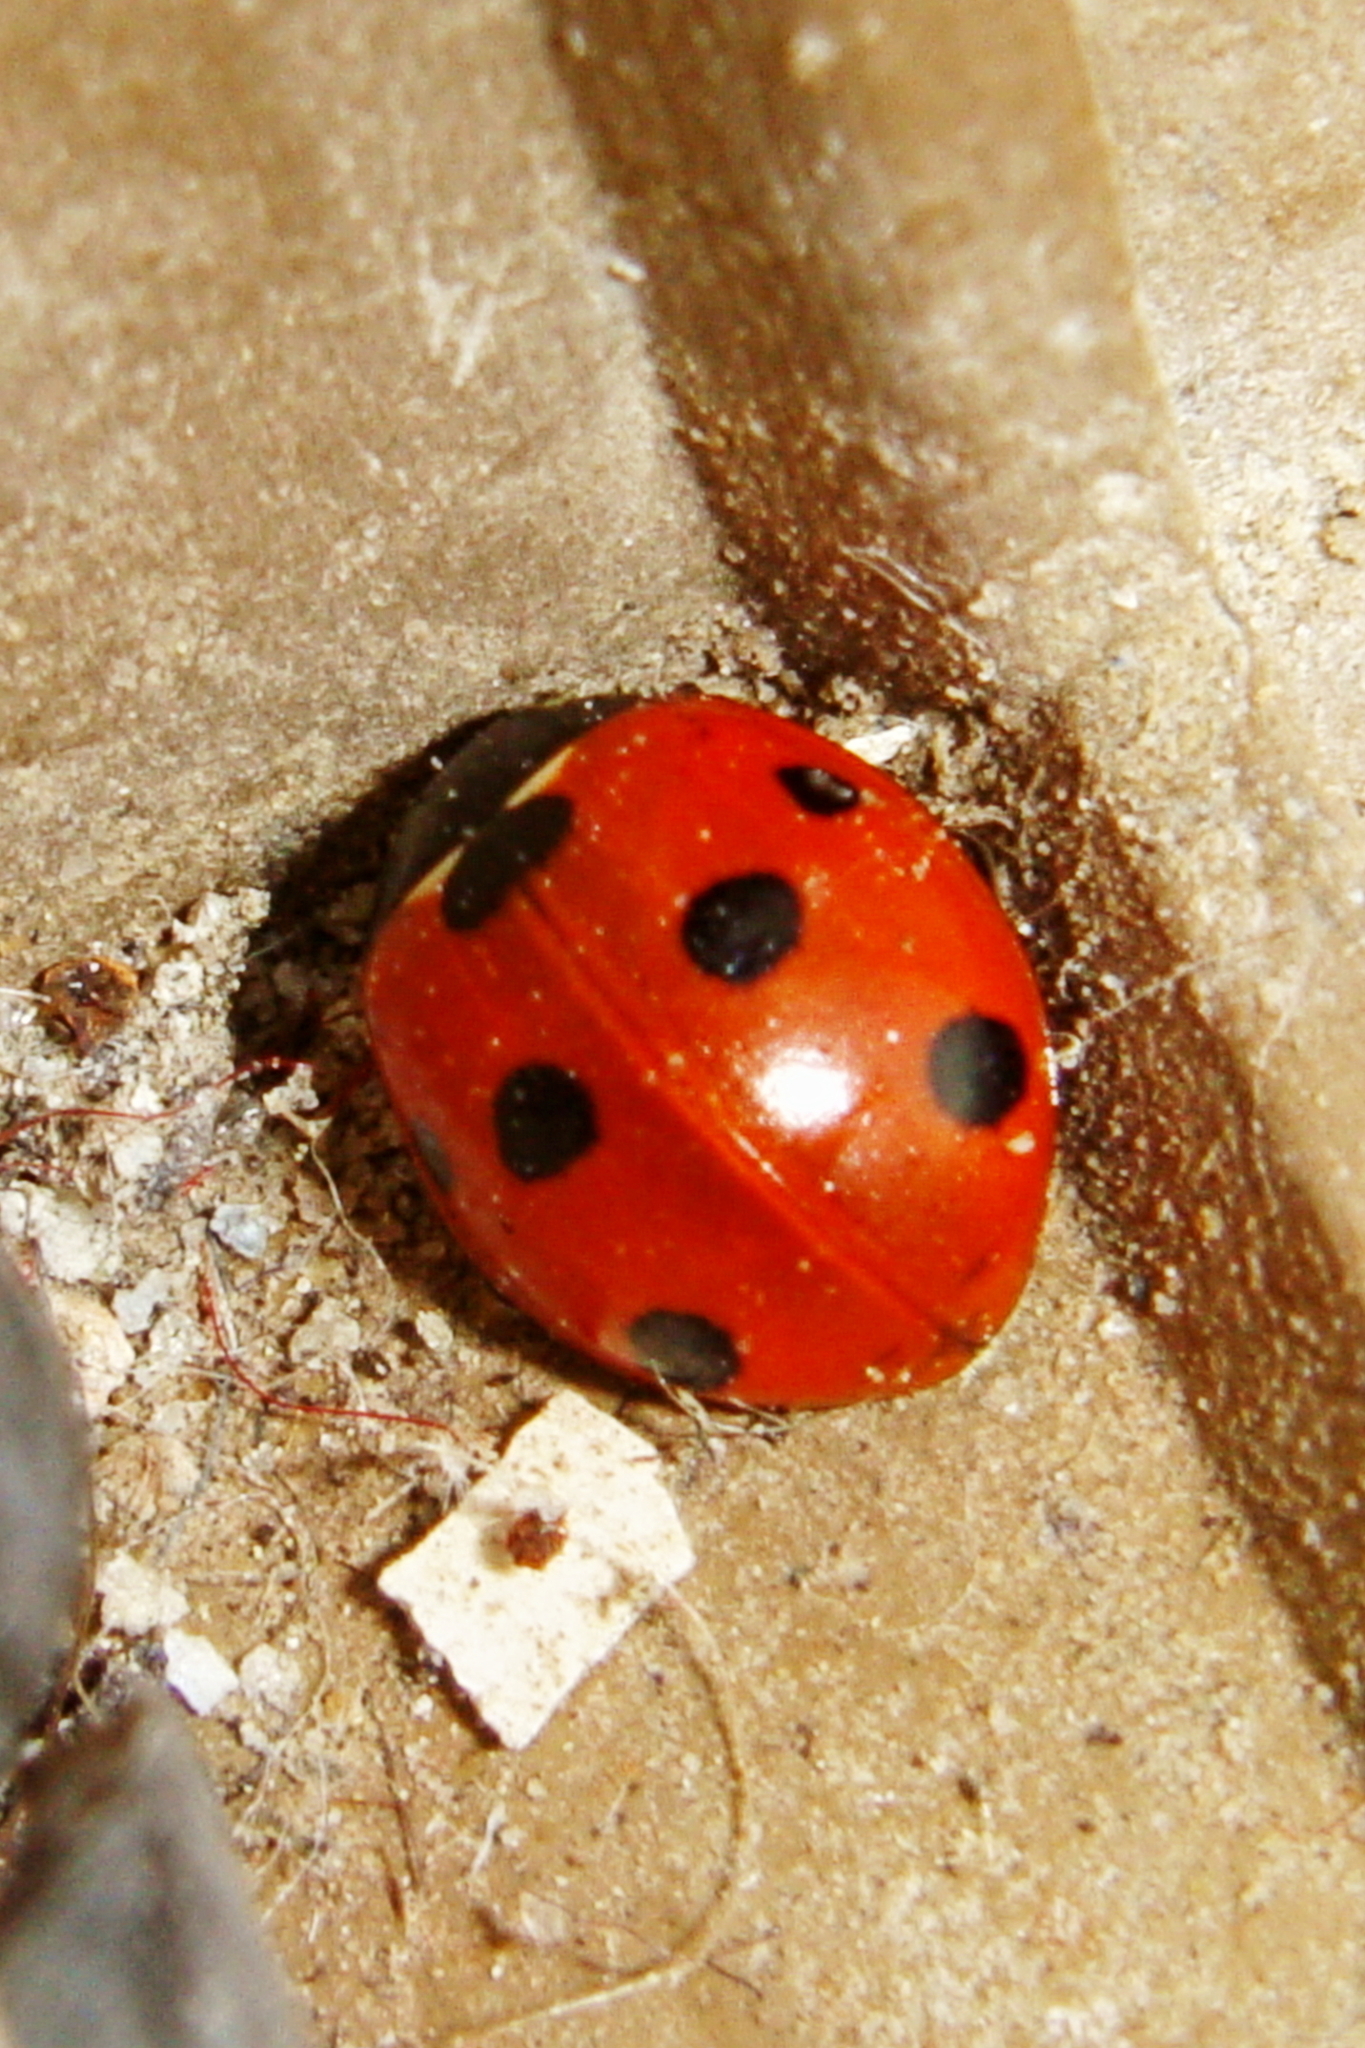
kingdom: Animalia
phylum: Arthropoda
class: Insecta
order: Coleoptera
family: Coccinellidae
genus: Coccinella
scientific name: Coccinella septempunctata
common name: Sevenspotted lady beetle
